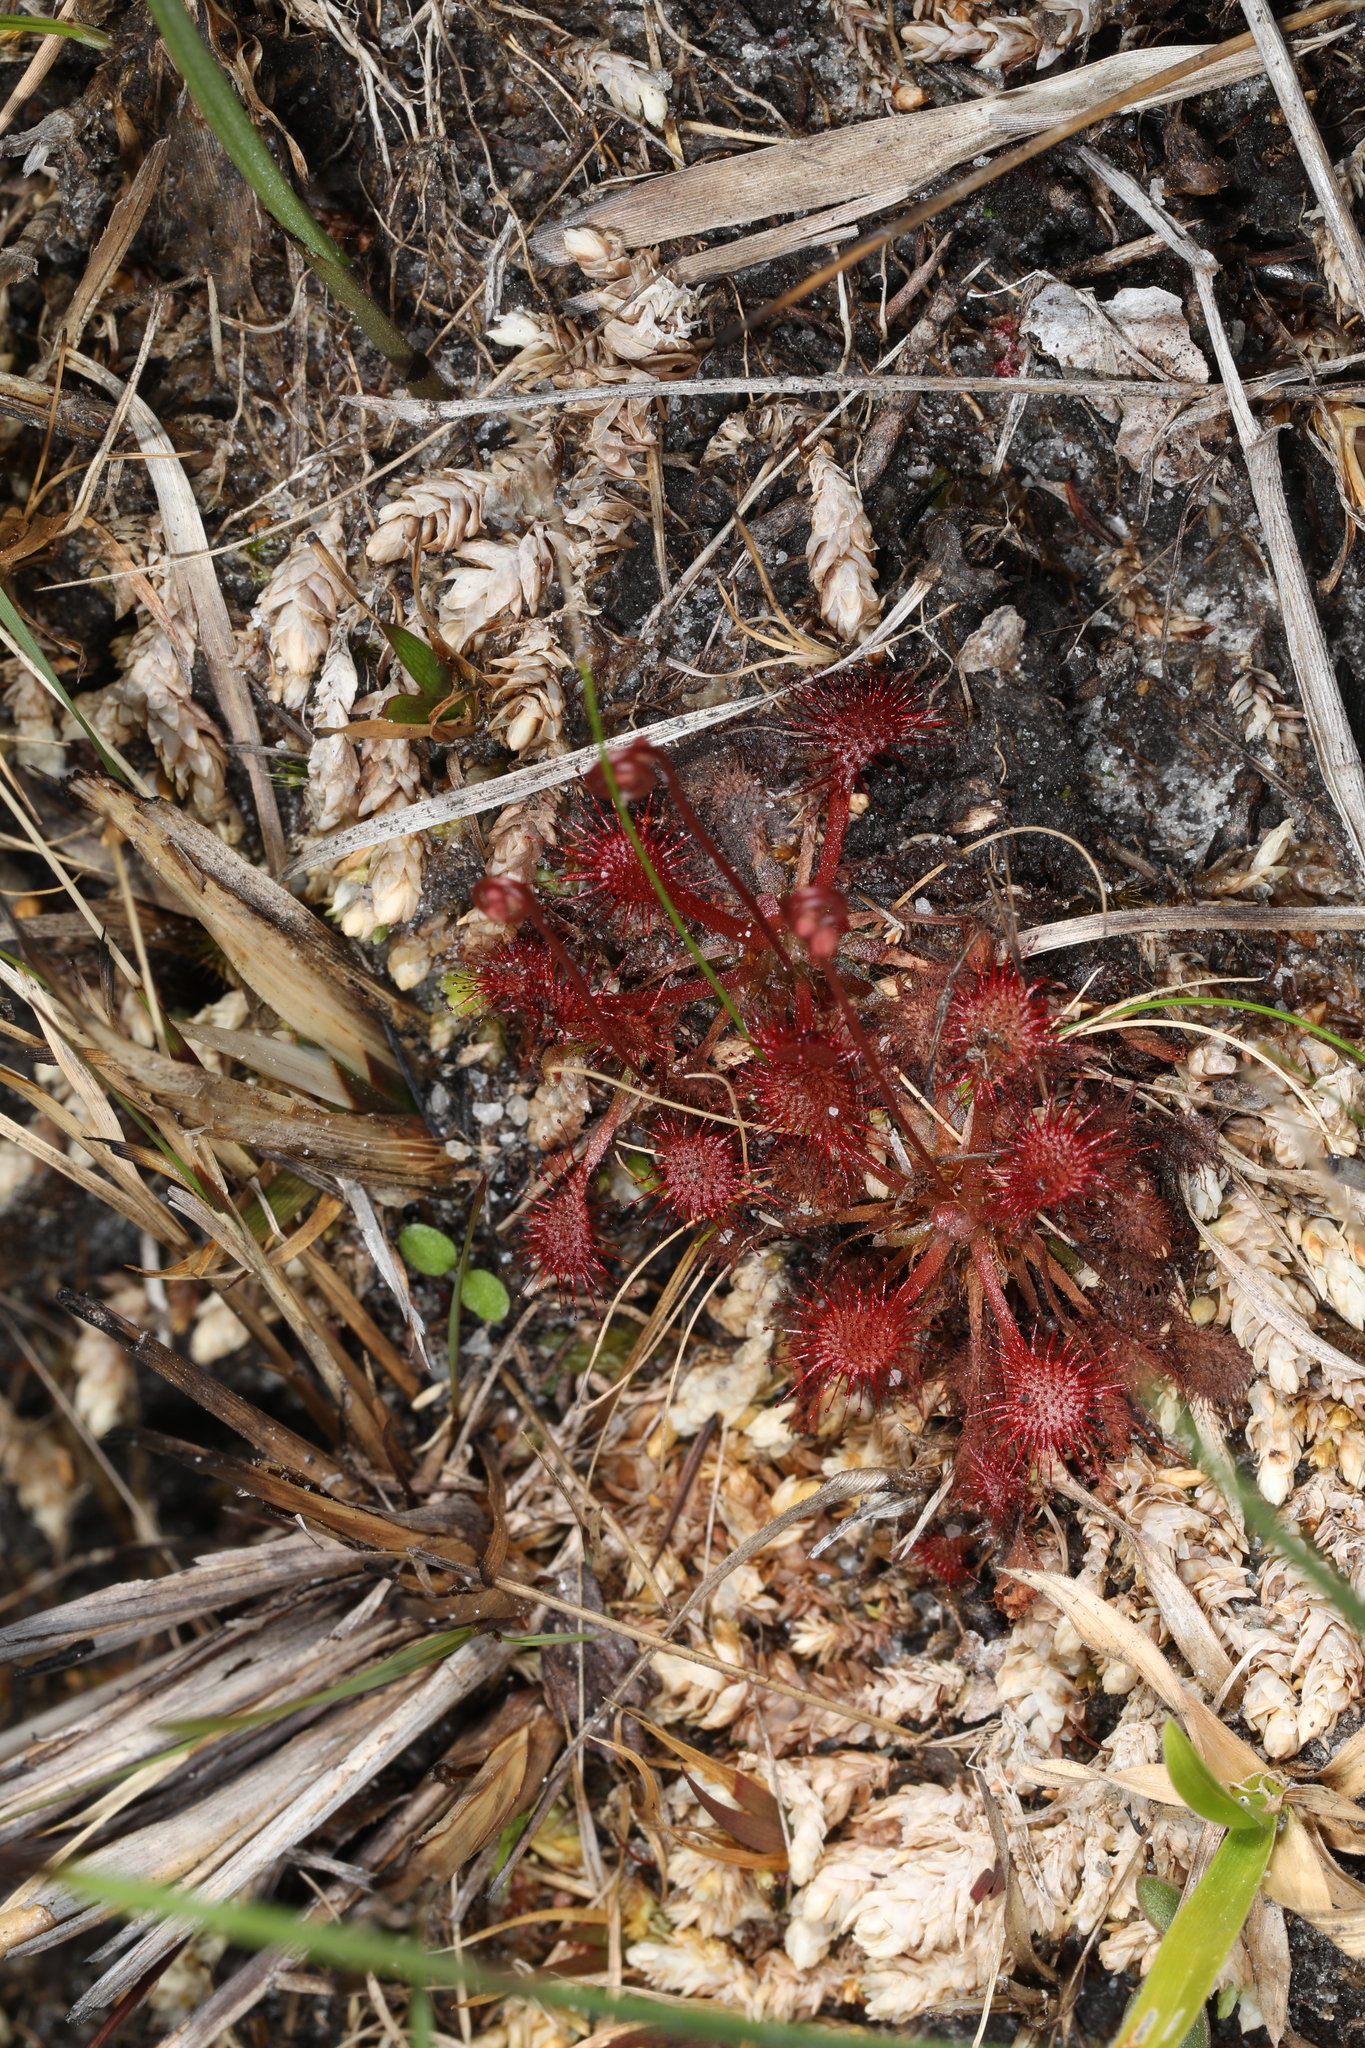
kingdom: Plantae
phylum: Tracheophyta
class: Magnoliopsida
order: Caryophyllales
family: Droseraceae
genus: Drosera
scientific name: Drosera capillaris
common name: Pink sundew
